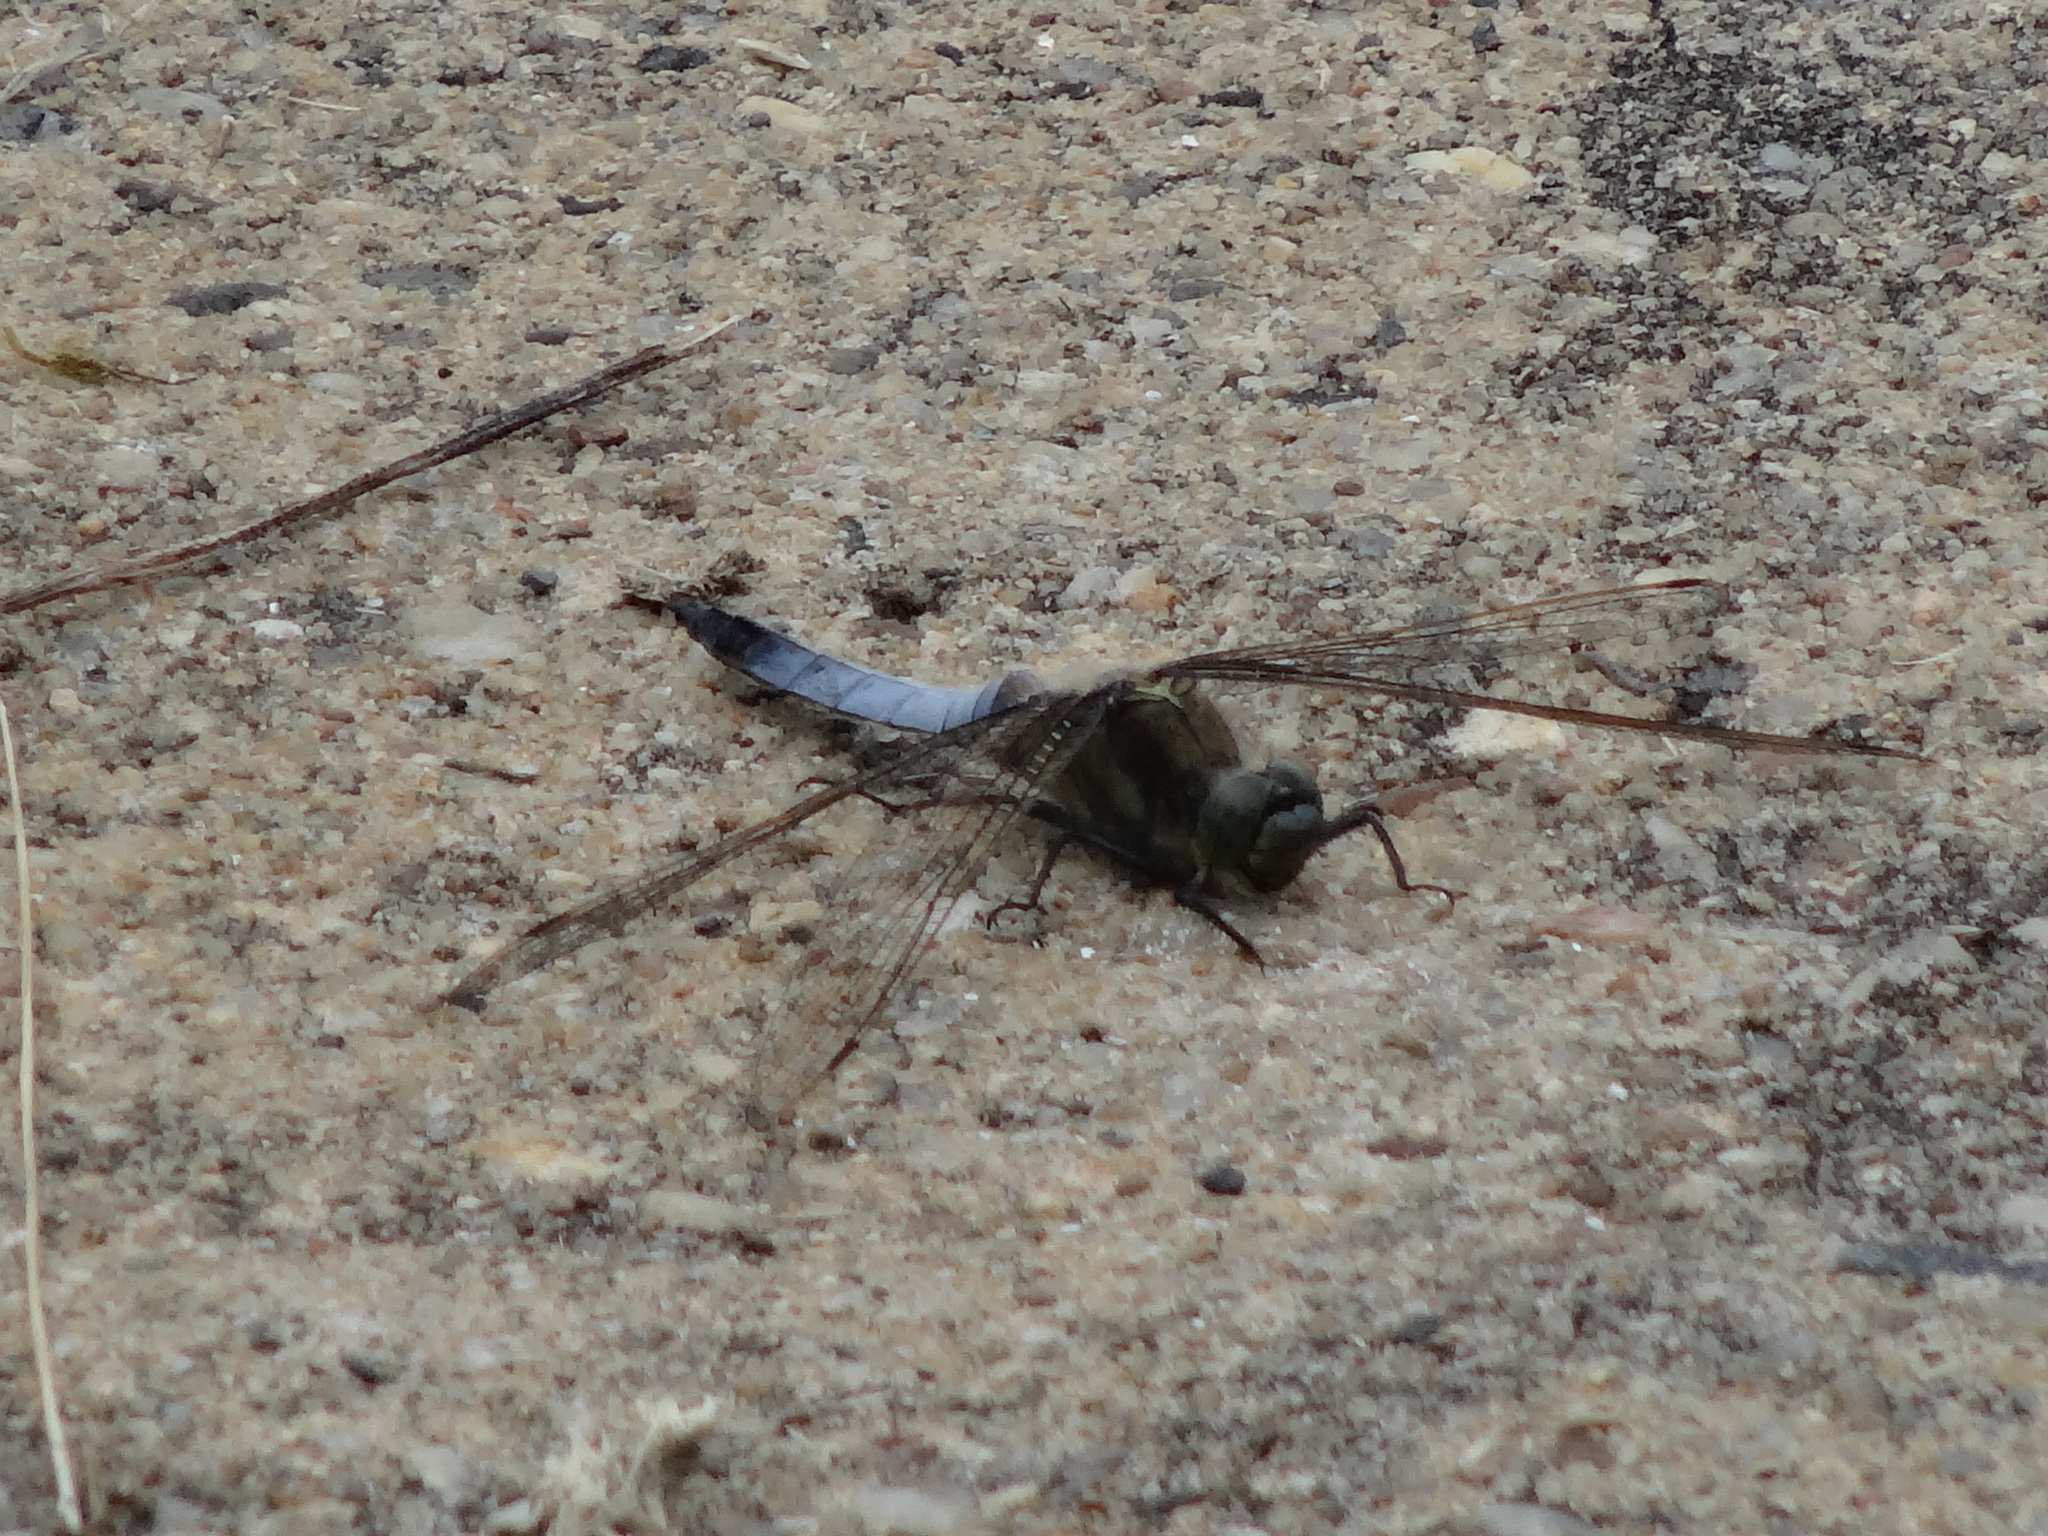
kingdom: Animalia
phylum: Arthropoda
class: Insecta
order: Odonata
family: Libellulidae
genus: Orthetrum
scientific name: Orthetrum cancellatum
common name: Black-tailed skimmer
